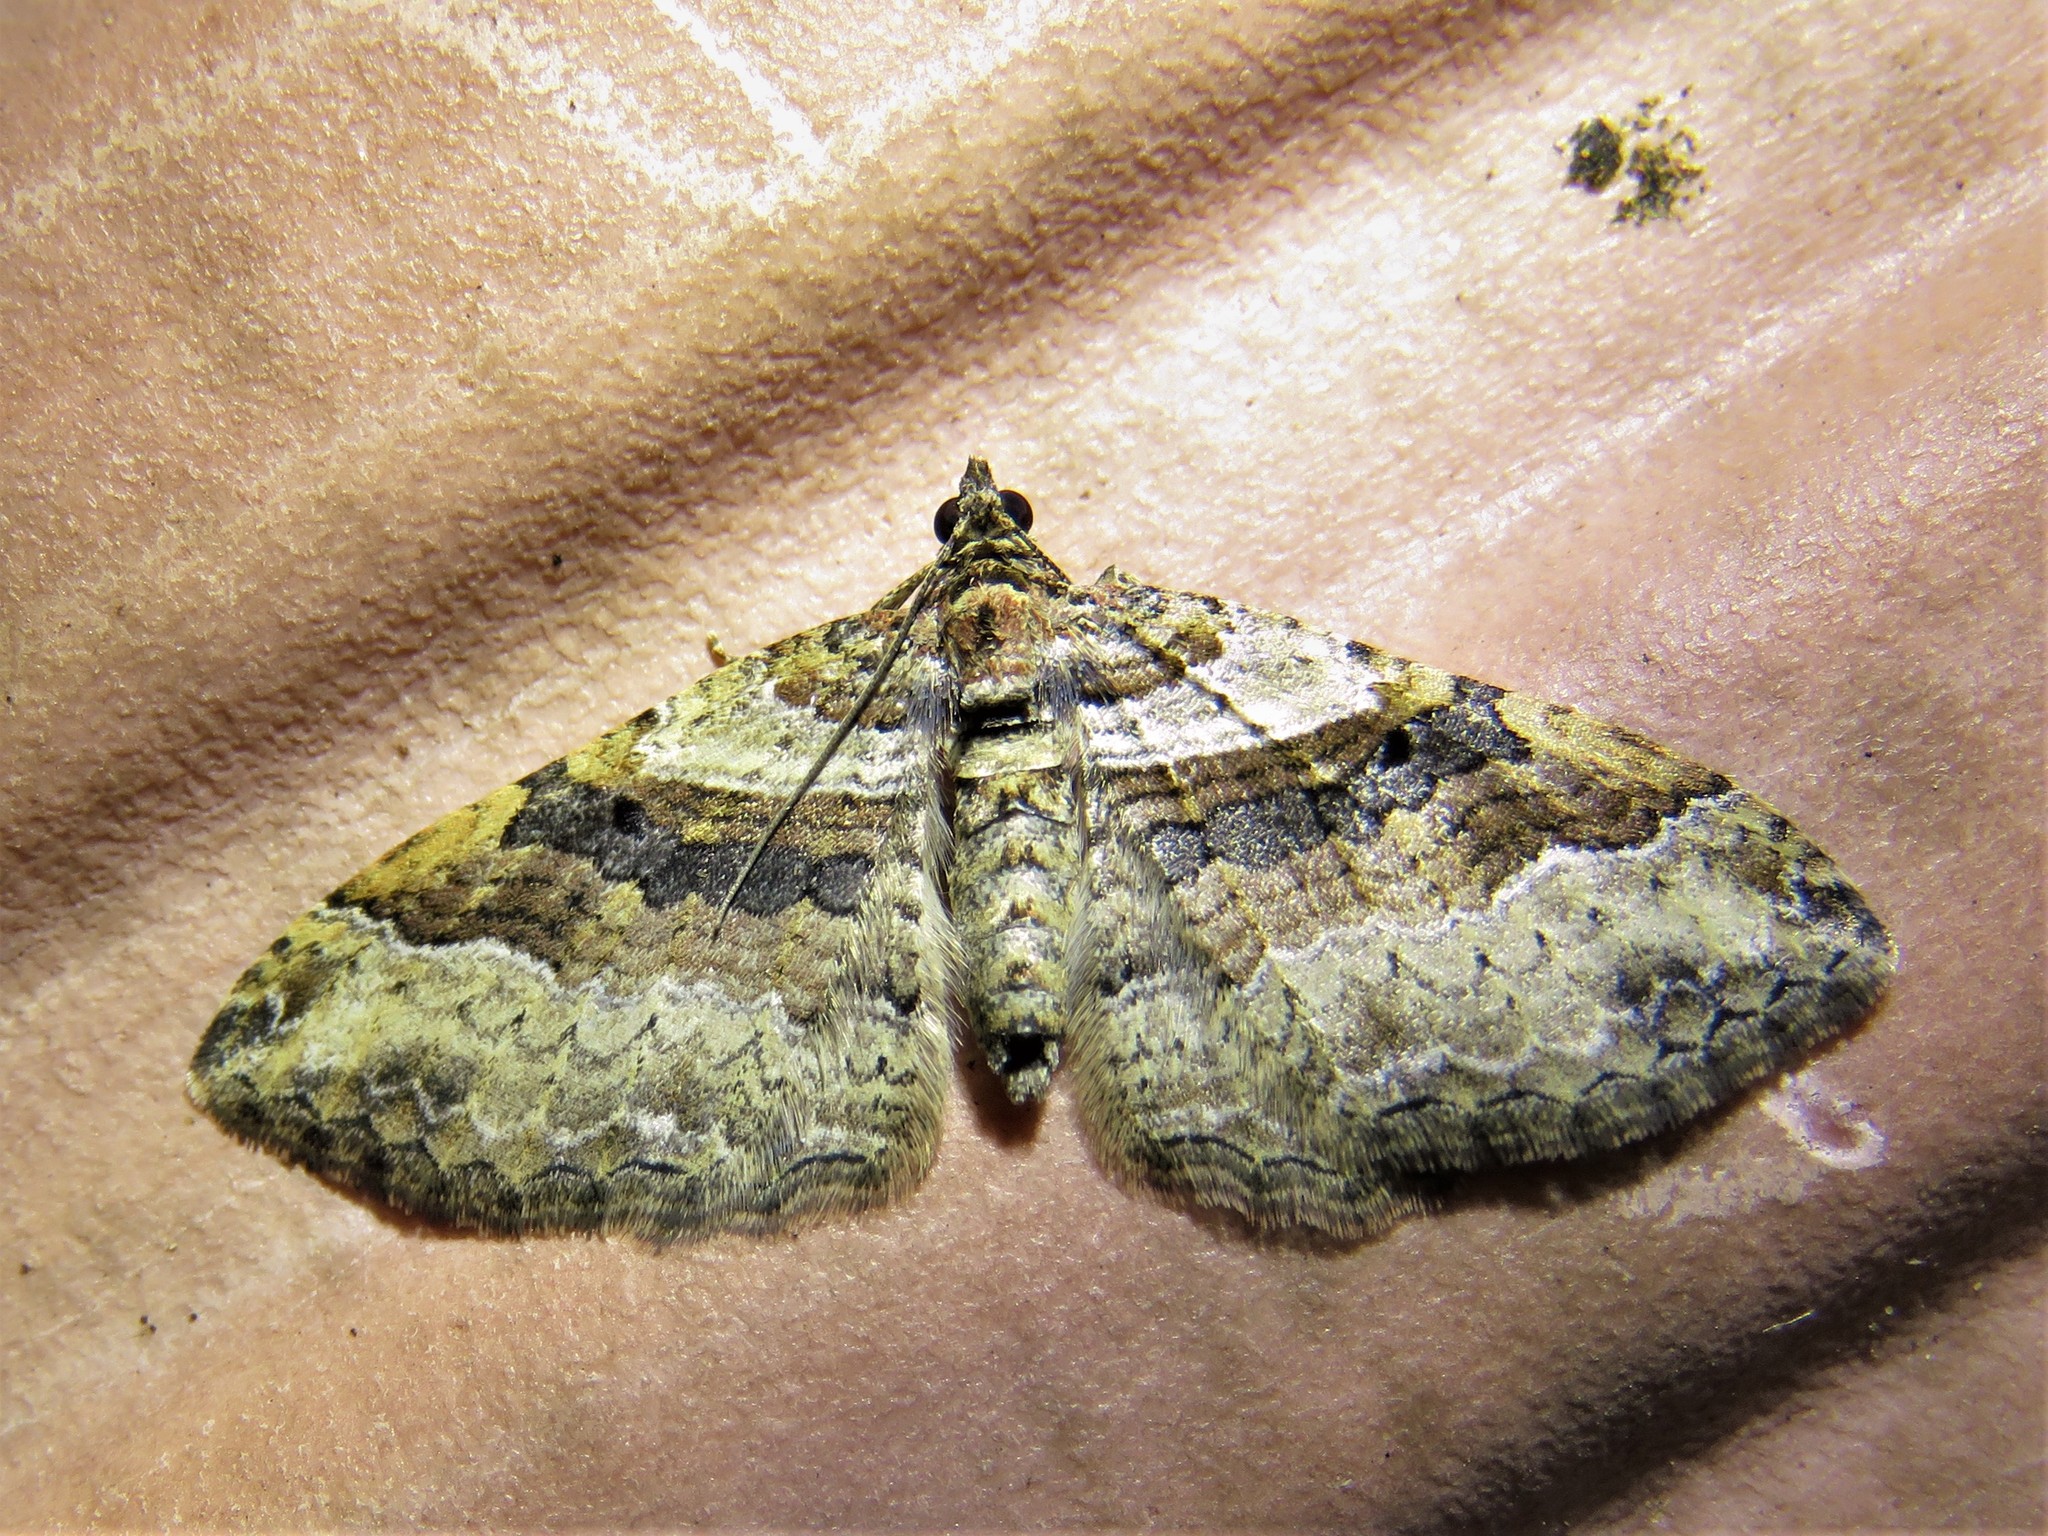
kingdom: Animalia
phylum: Arthropoda
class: Insecta
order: Lepidoptera
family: Geometridae
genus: Costaconvexa
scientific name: Costaconvexa centrostrigaria
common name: Bent-line carpet
